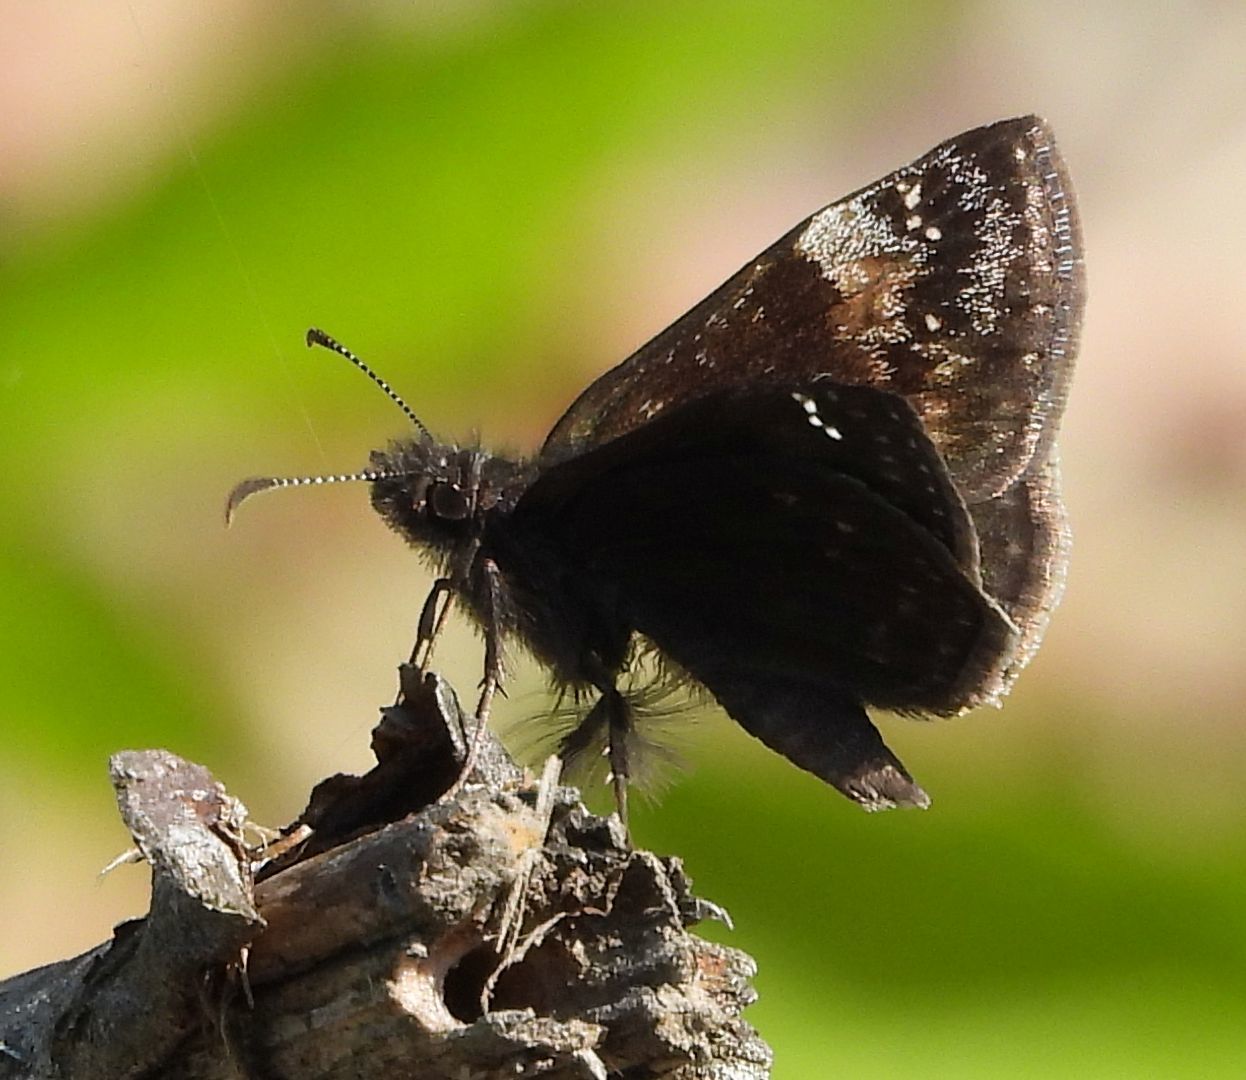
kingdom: Animalia
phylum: Arthropoda
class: Insecta
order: Lepidoptera
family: Hesperiidae
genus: Erynnis
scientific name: Erynnis baptisiae
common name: Wild indigo duskywing
